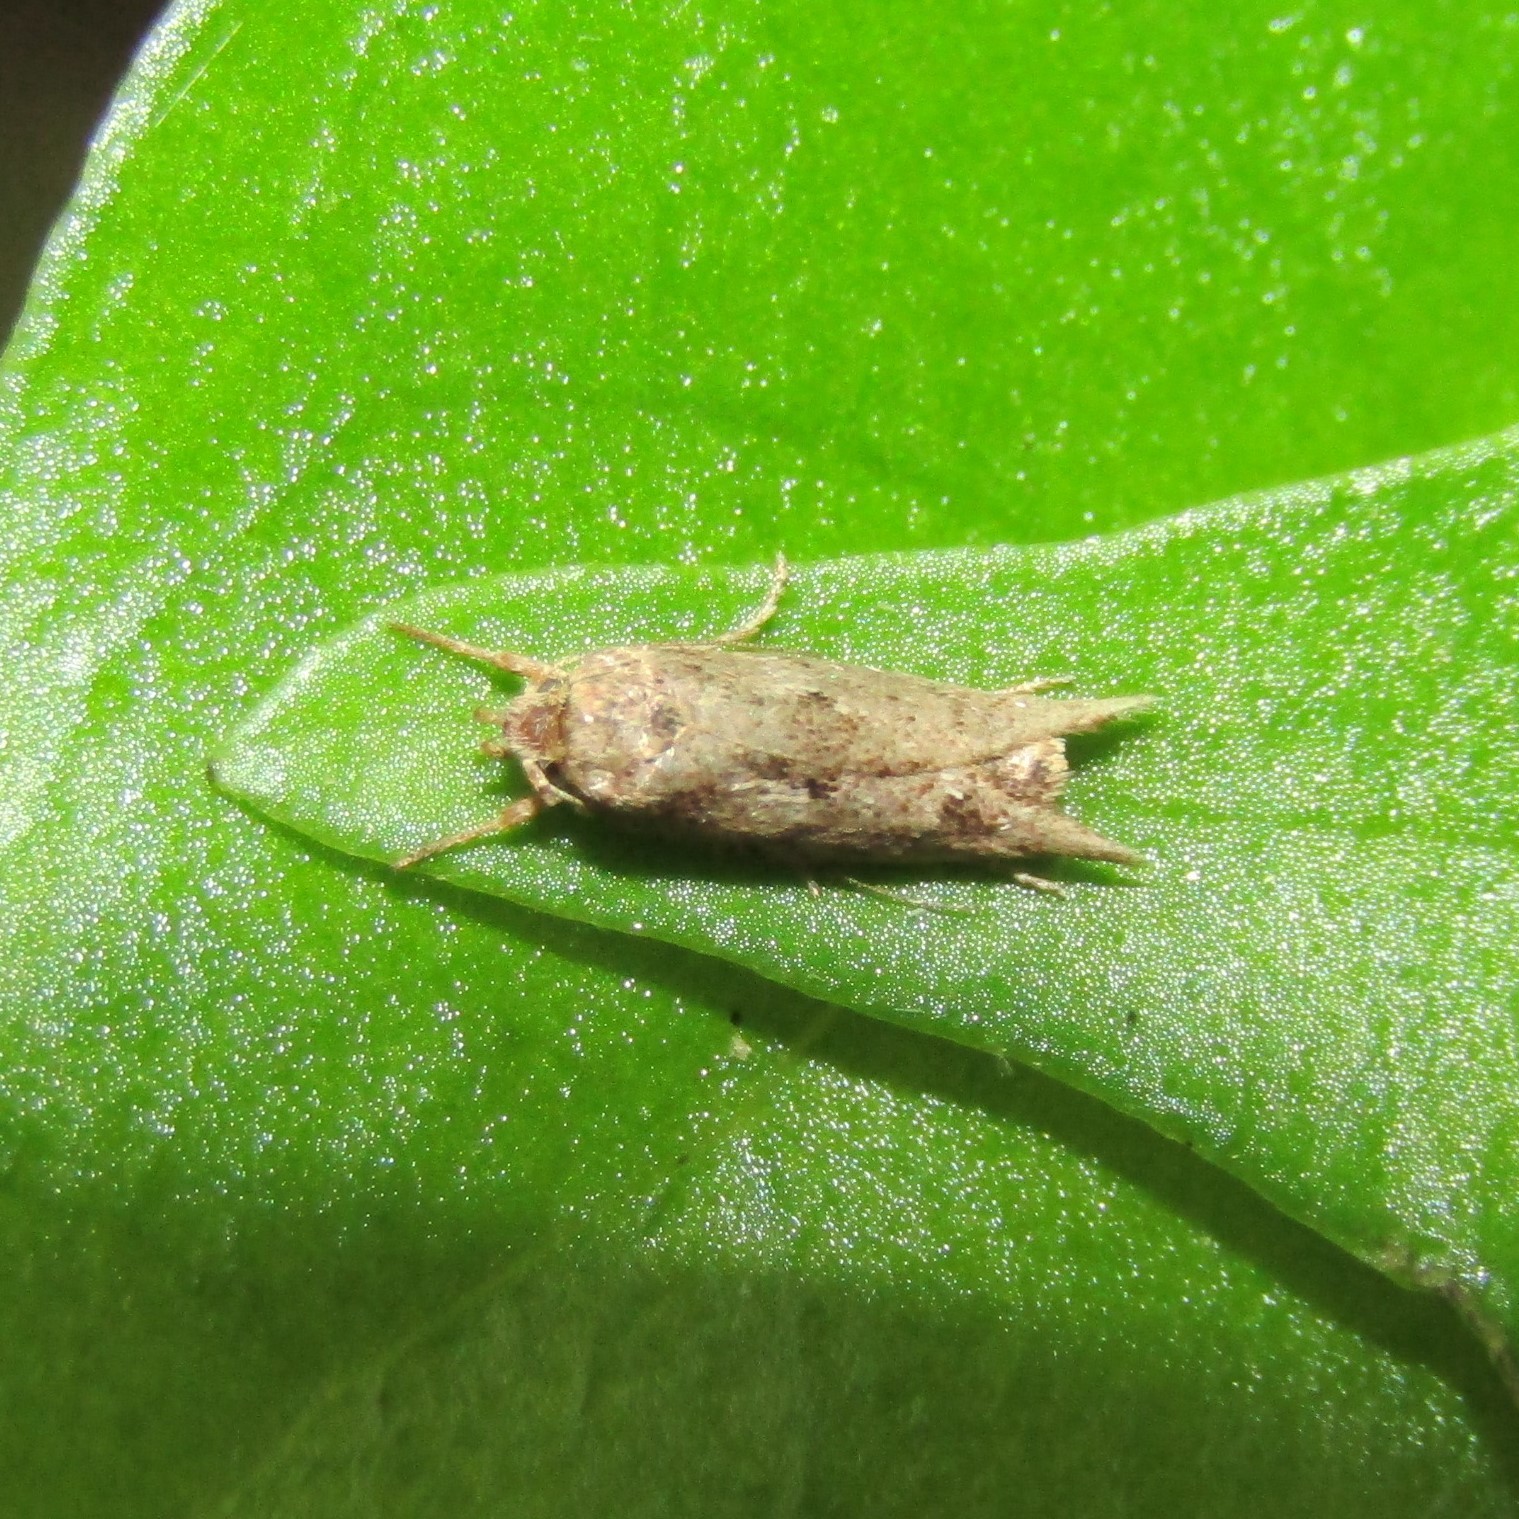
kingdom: Animalia
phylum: Arthropoda
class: Insecta
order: Lepidoptera
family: Oecophoridae
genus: Chersadaula
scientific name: Chersadaula ochrogastra
